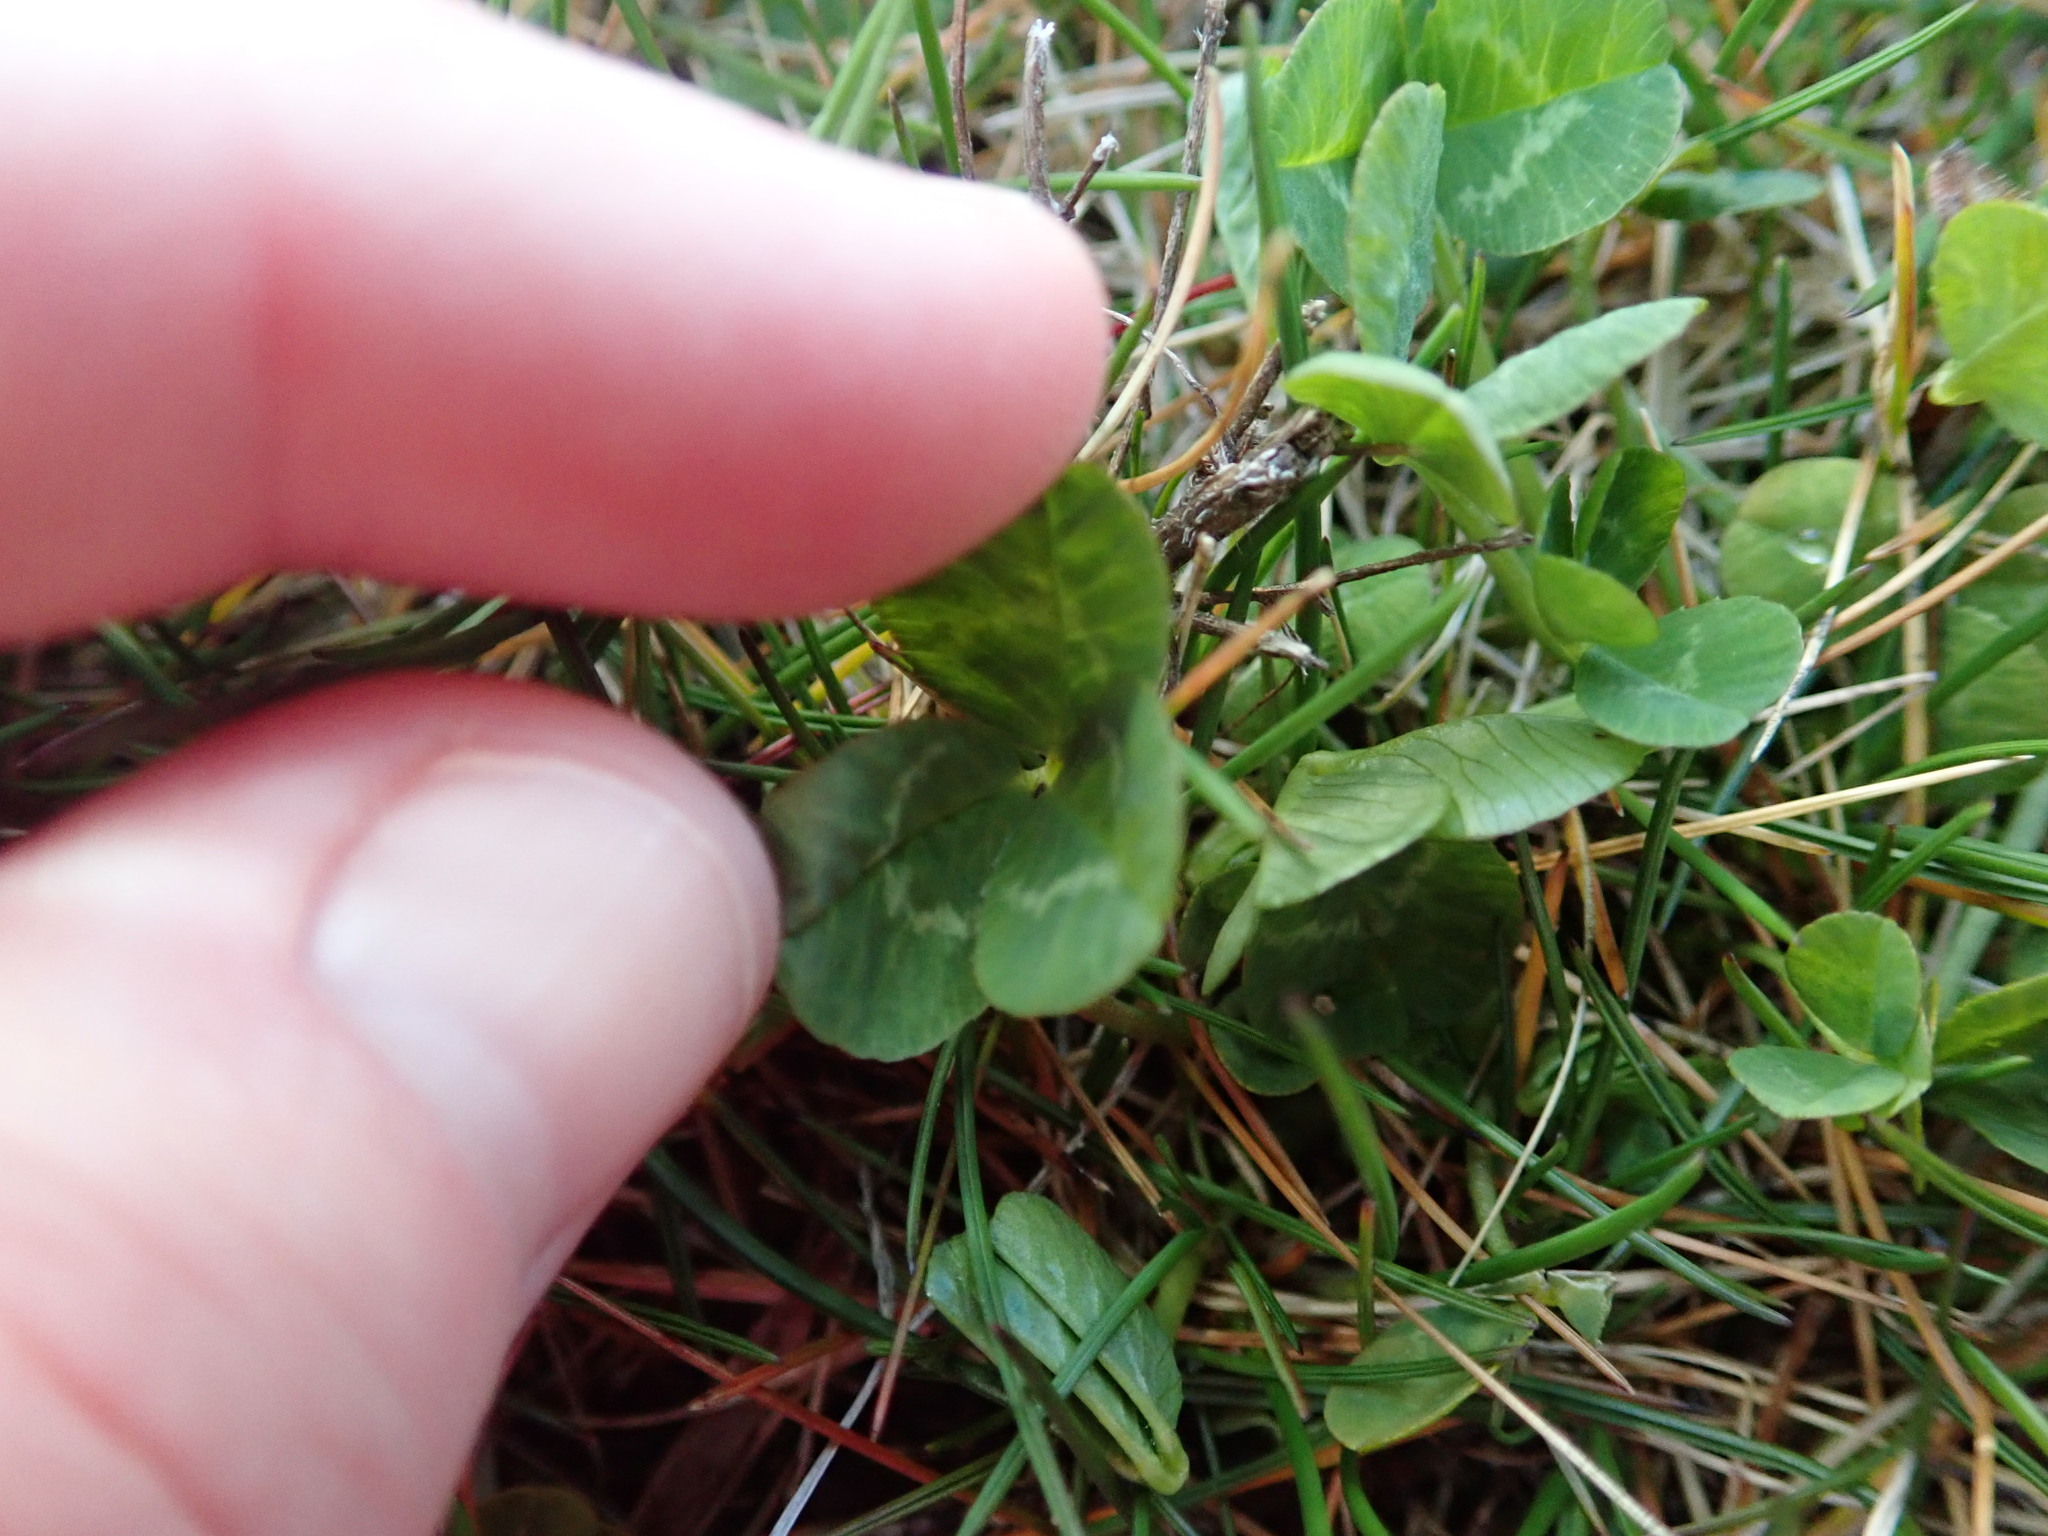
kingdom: Plantae
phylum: Tracheophyta
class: Magnoliopsida
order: Fabales
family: Fabaceae
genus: Trifolium
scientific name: Trifolium repens
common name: White clover
